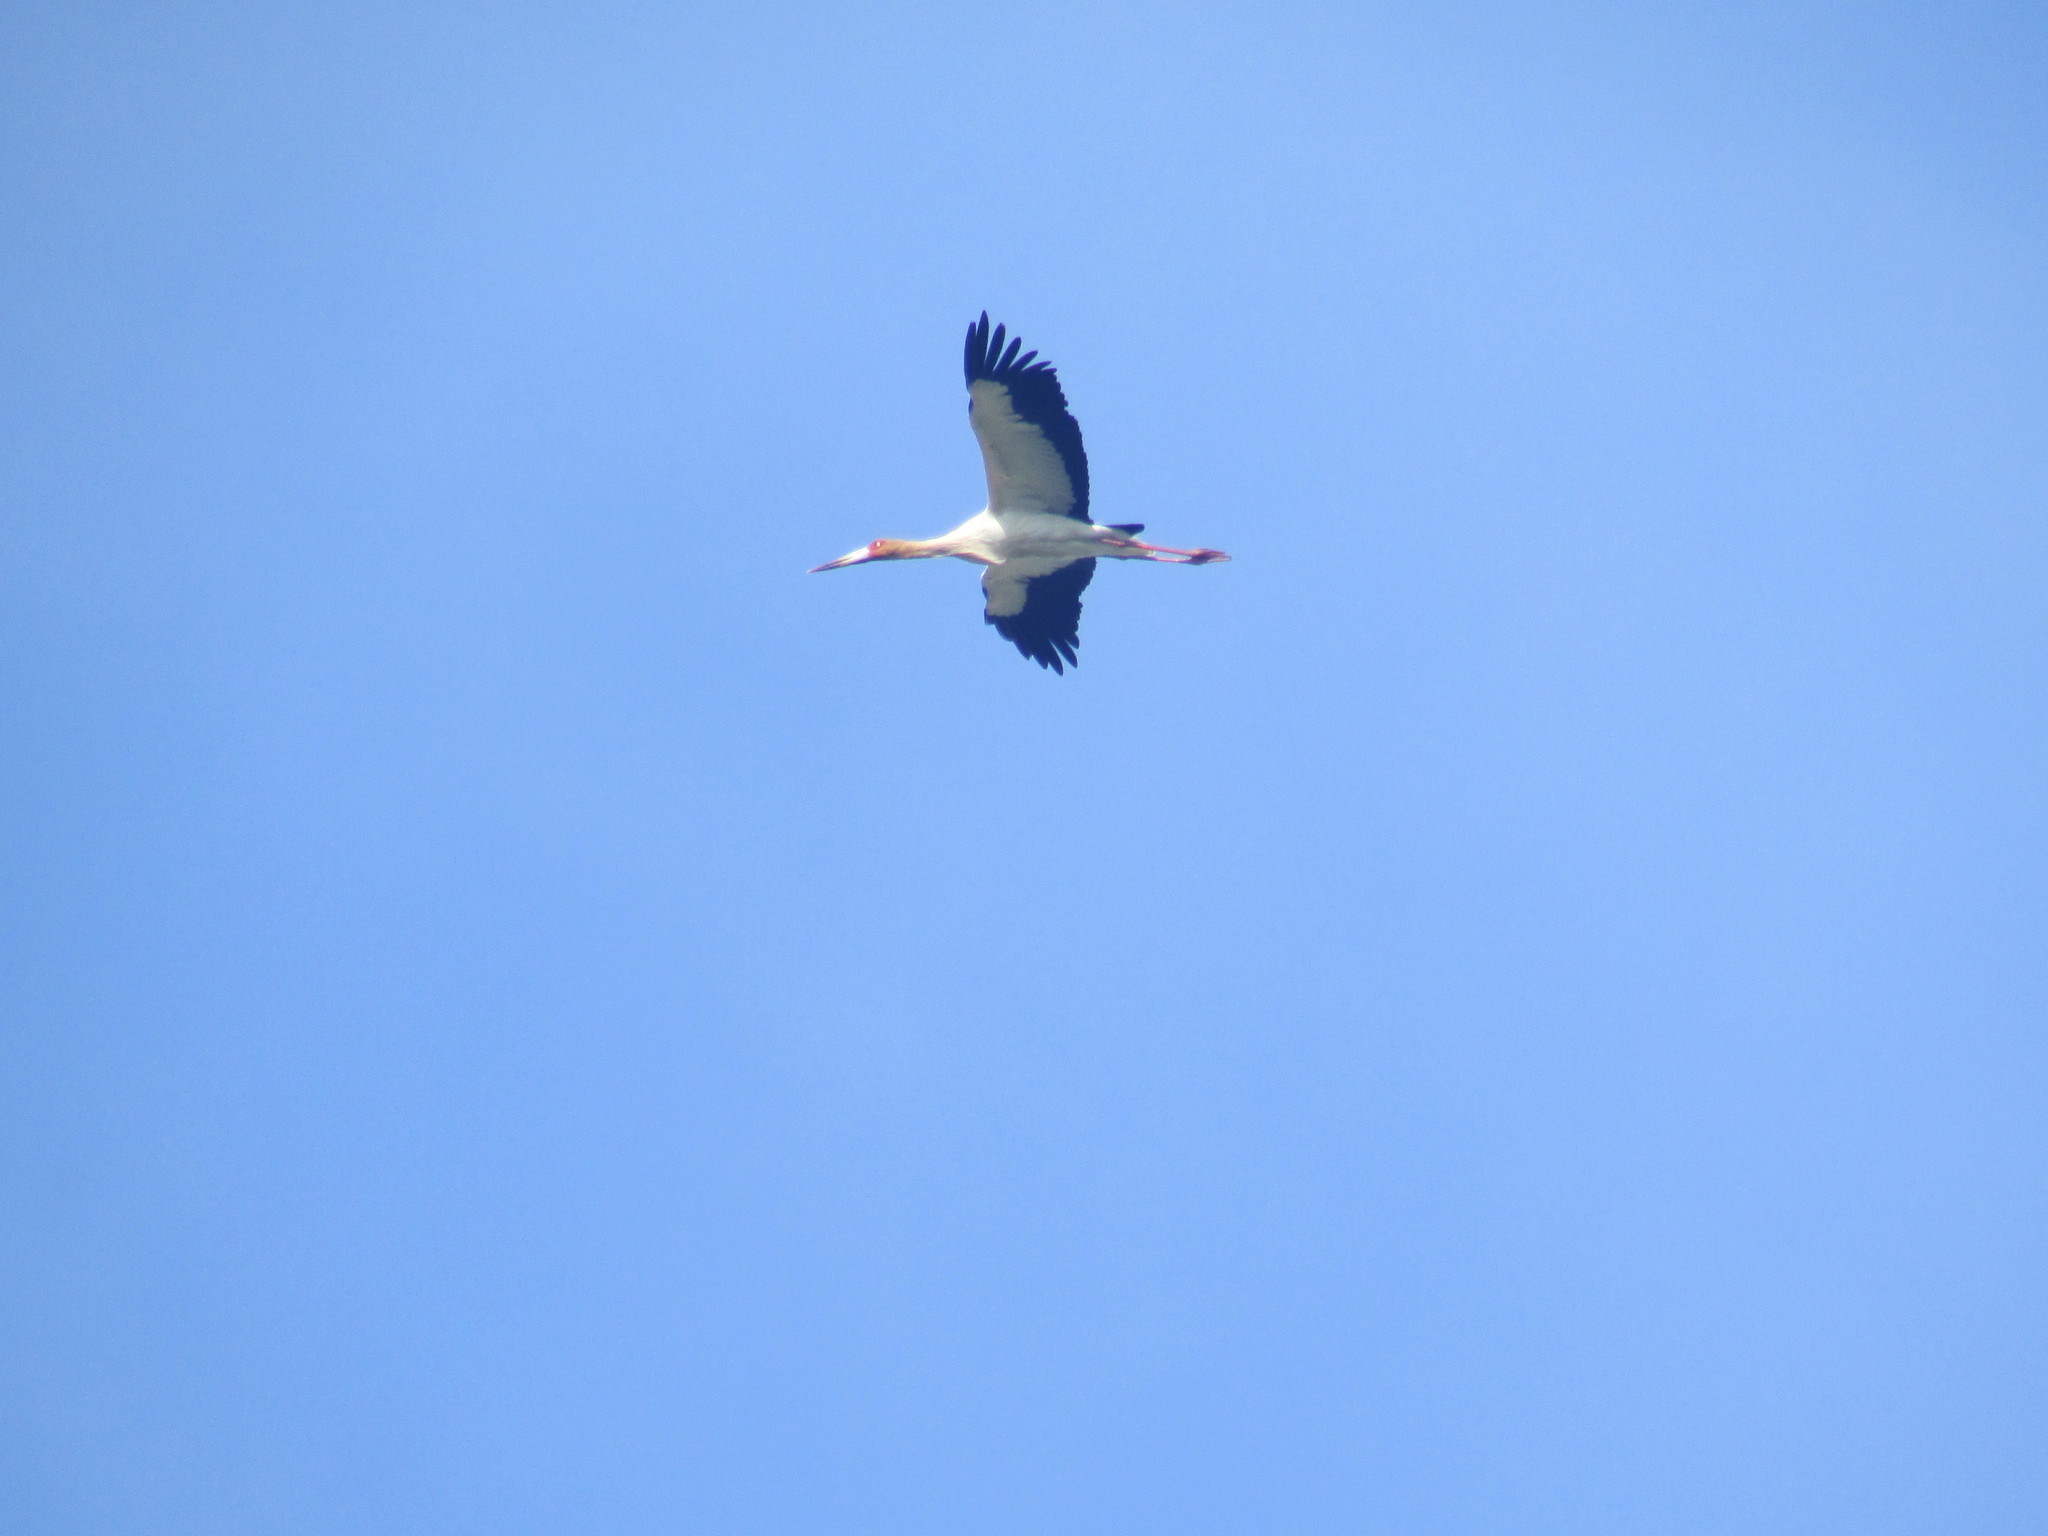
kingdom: Animalia
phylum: Chordata
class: Aves
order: Ciconiiformes
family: Ciconiidae
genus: Ciconia
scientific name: Ciconia maguari
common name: Maguari stork
